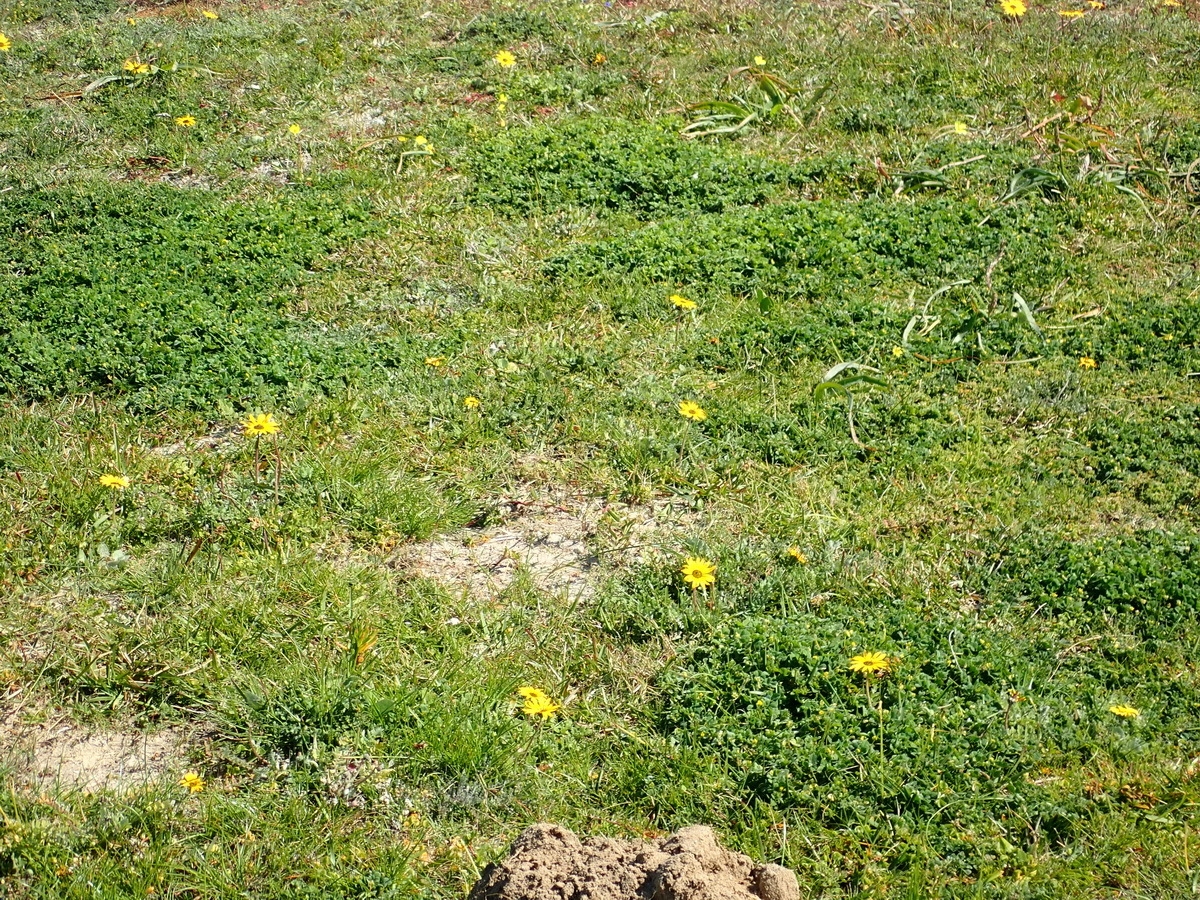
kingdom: Plantae
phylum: Tracheophyta
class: Magnoliopsida
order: Asterales
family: Asteraceae
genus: Arctotheca
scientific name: Arctotheca prostrata
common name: Capeweed
